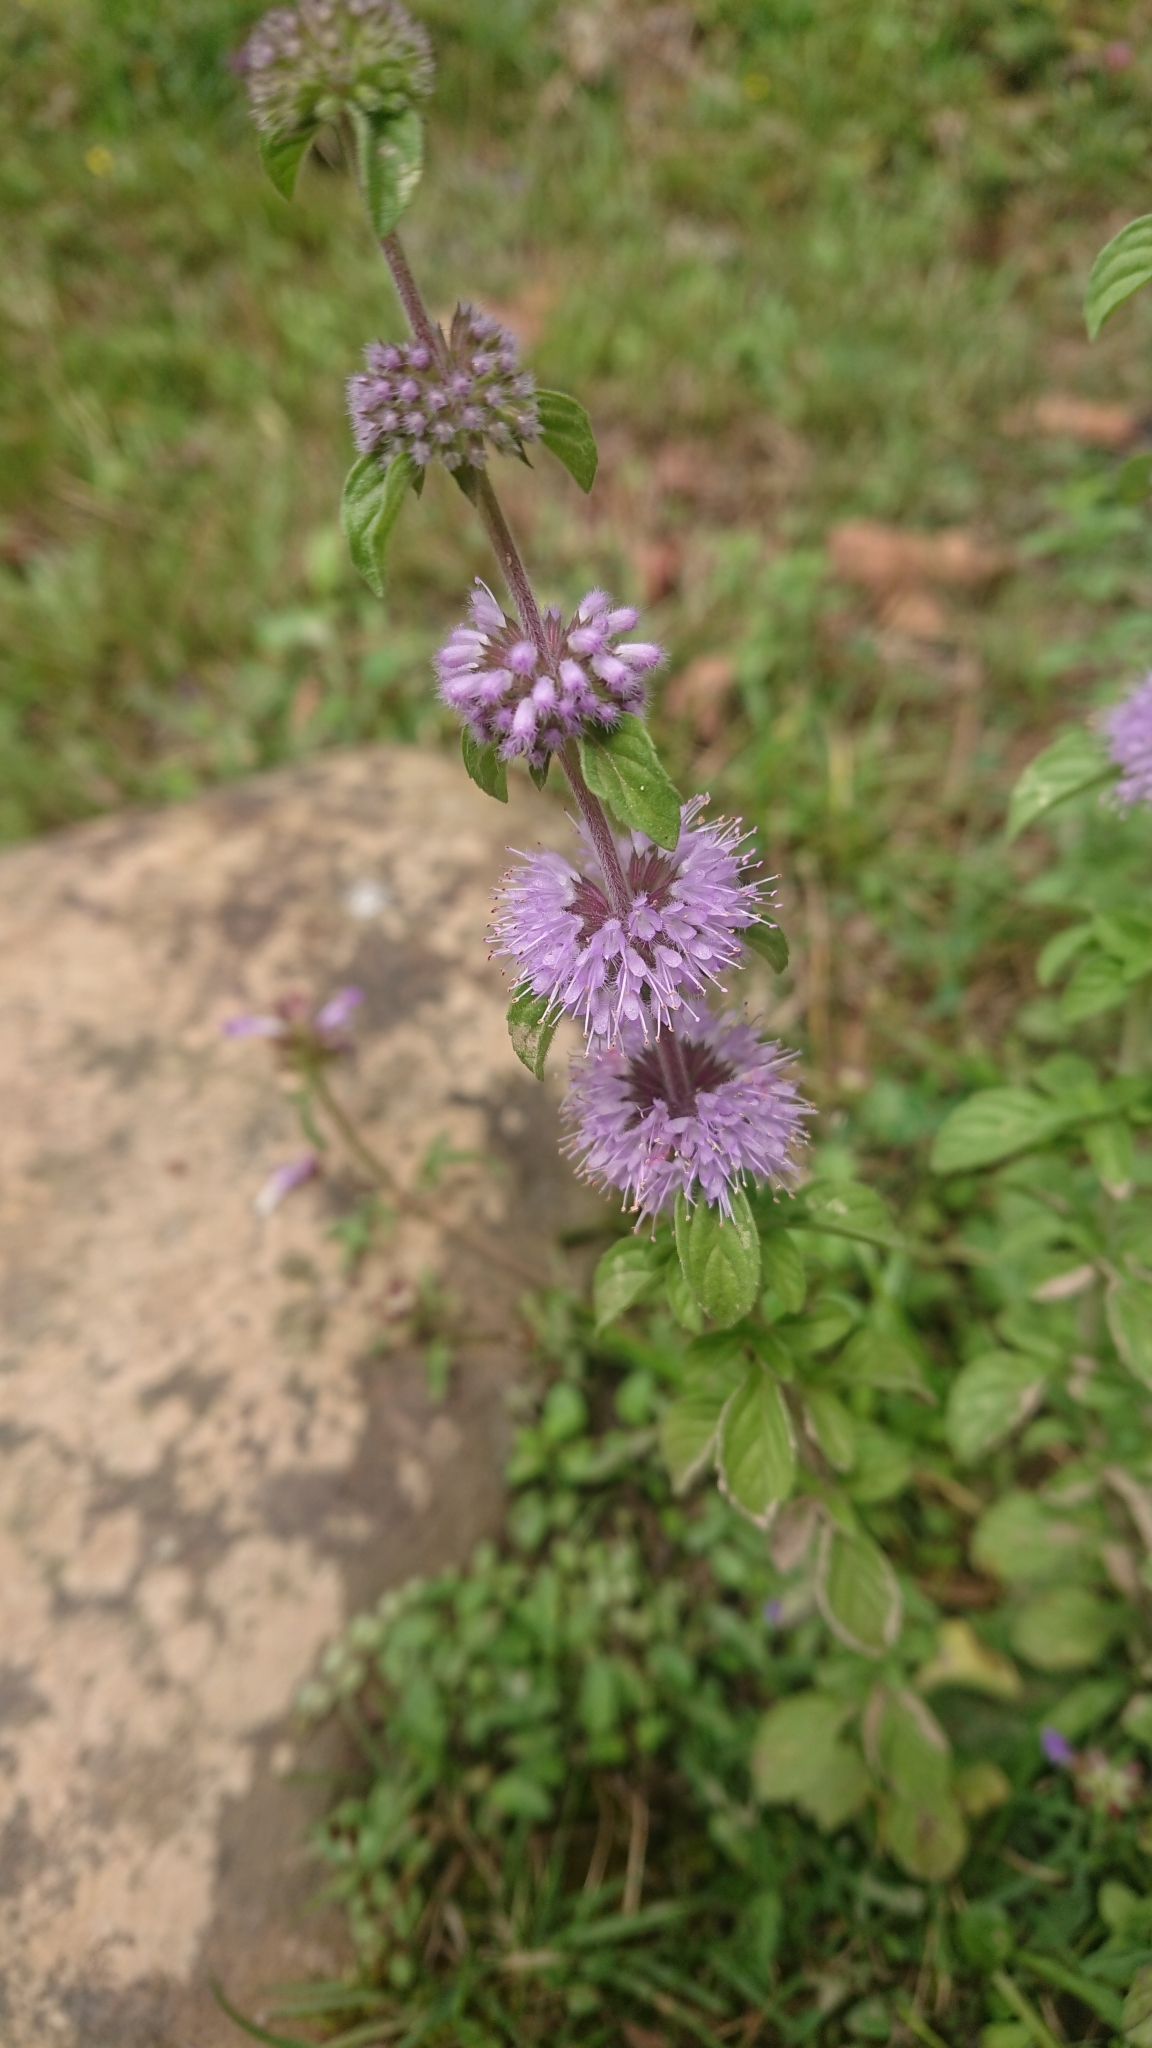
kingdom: Plantae
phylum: Tracheophyta
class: Magnoliopsida
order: Lamiales
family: Lamiaceae
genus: Mentha
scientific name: Mentha pulegium
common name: Pennyroyal
